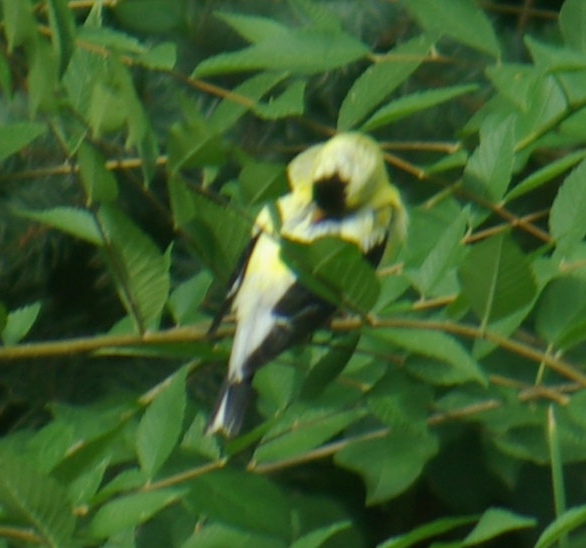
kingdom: Animalia
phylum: Chordata
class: Aves
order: Passeriformes
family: Fringillidae
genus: Spinus
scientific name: Spinus tristis
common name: American goldfinch
